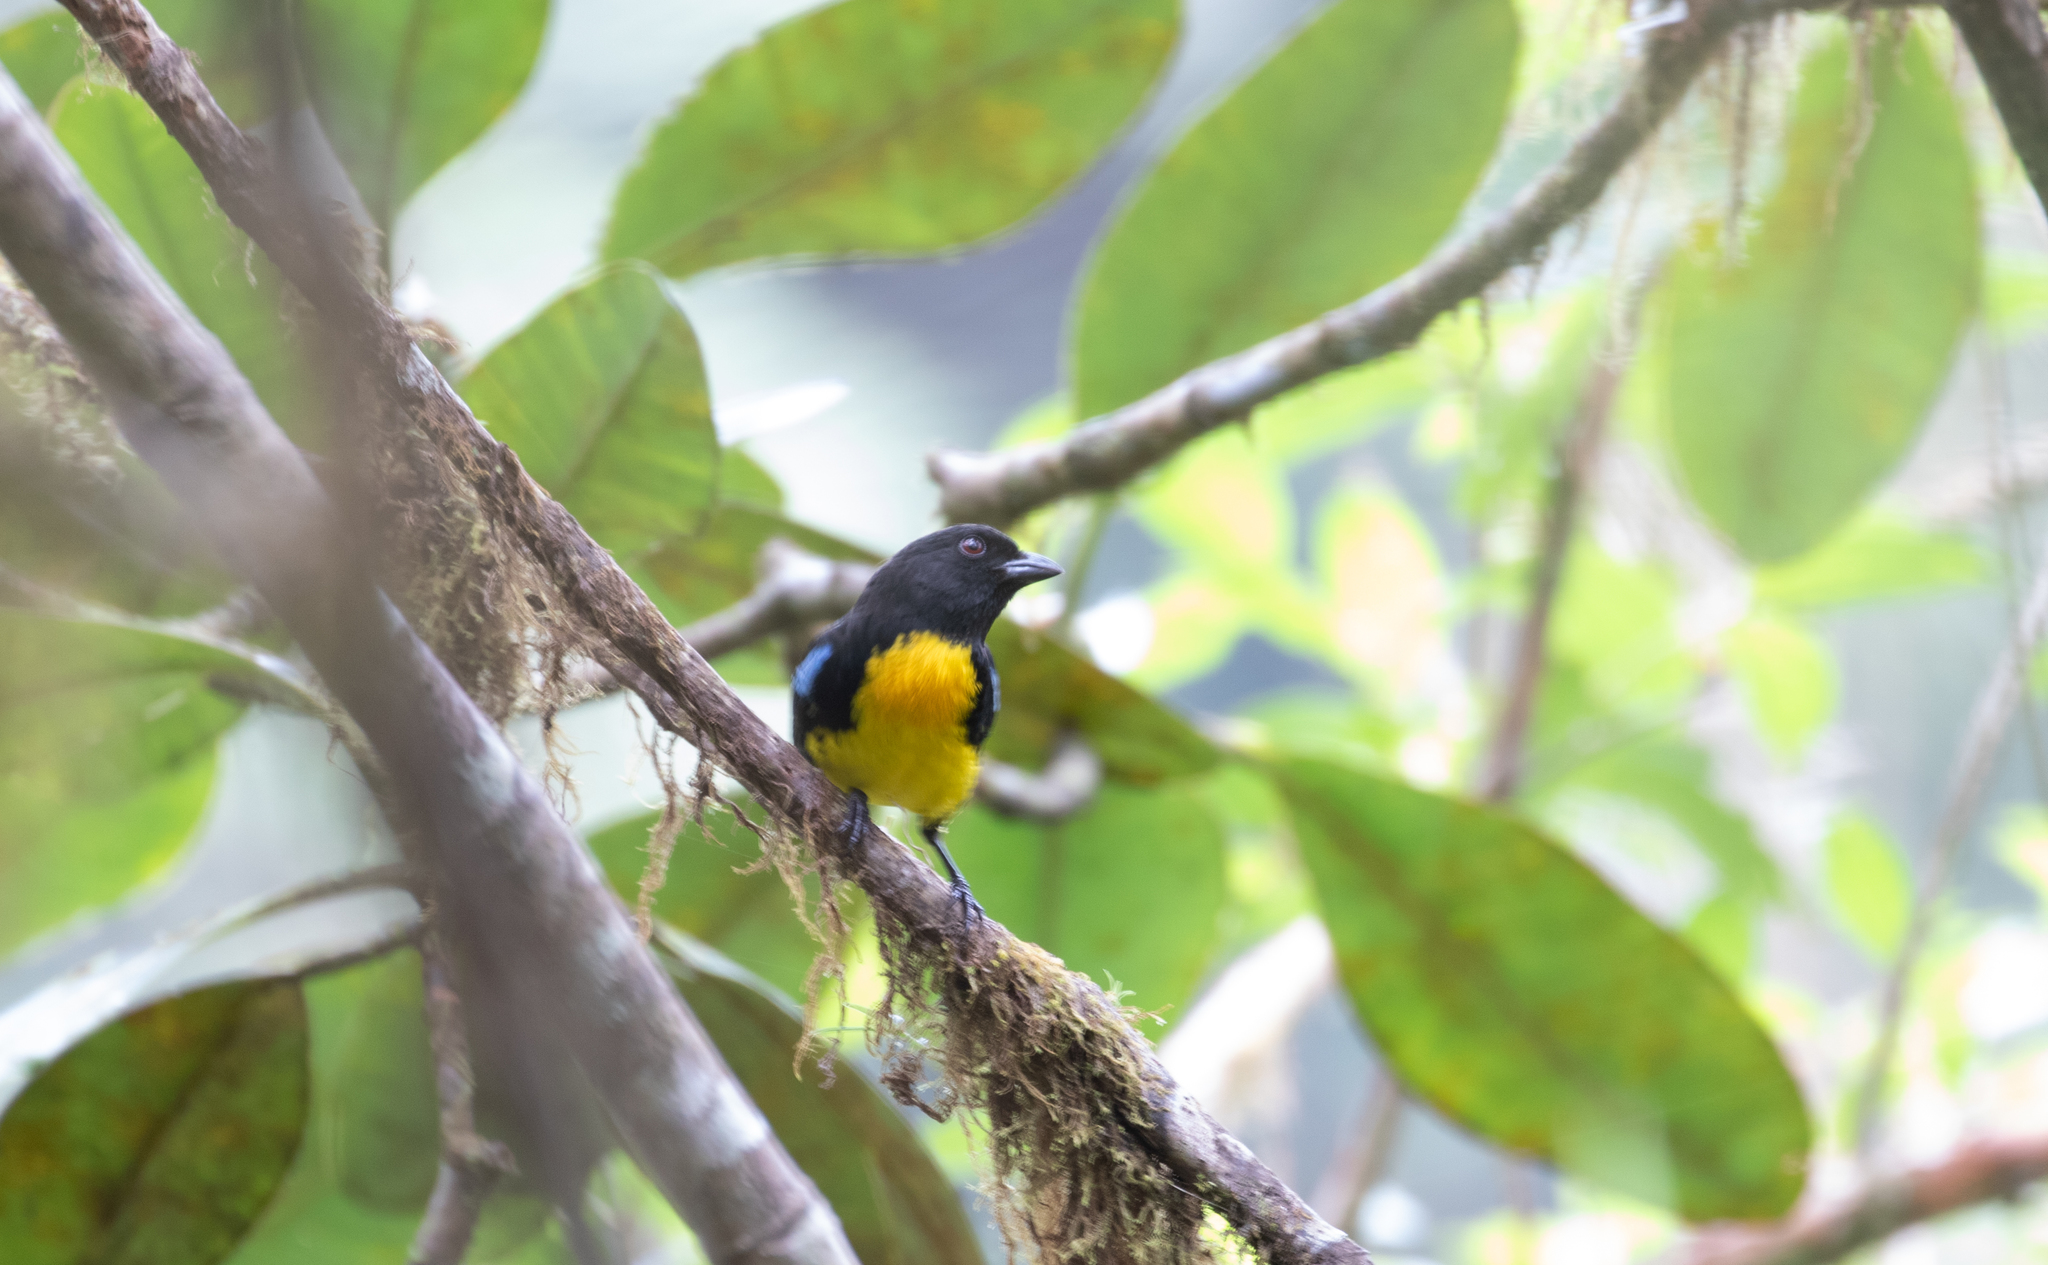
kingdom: Animalia
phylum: Chordata
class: Aves
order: Passeriformes
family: Thraupidae
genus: Bangsia
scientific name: Bangsia melanochlamys
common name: Black-and-gold tanager
